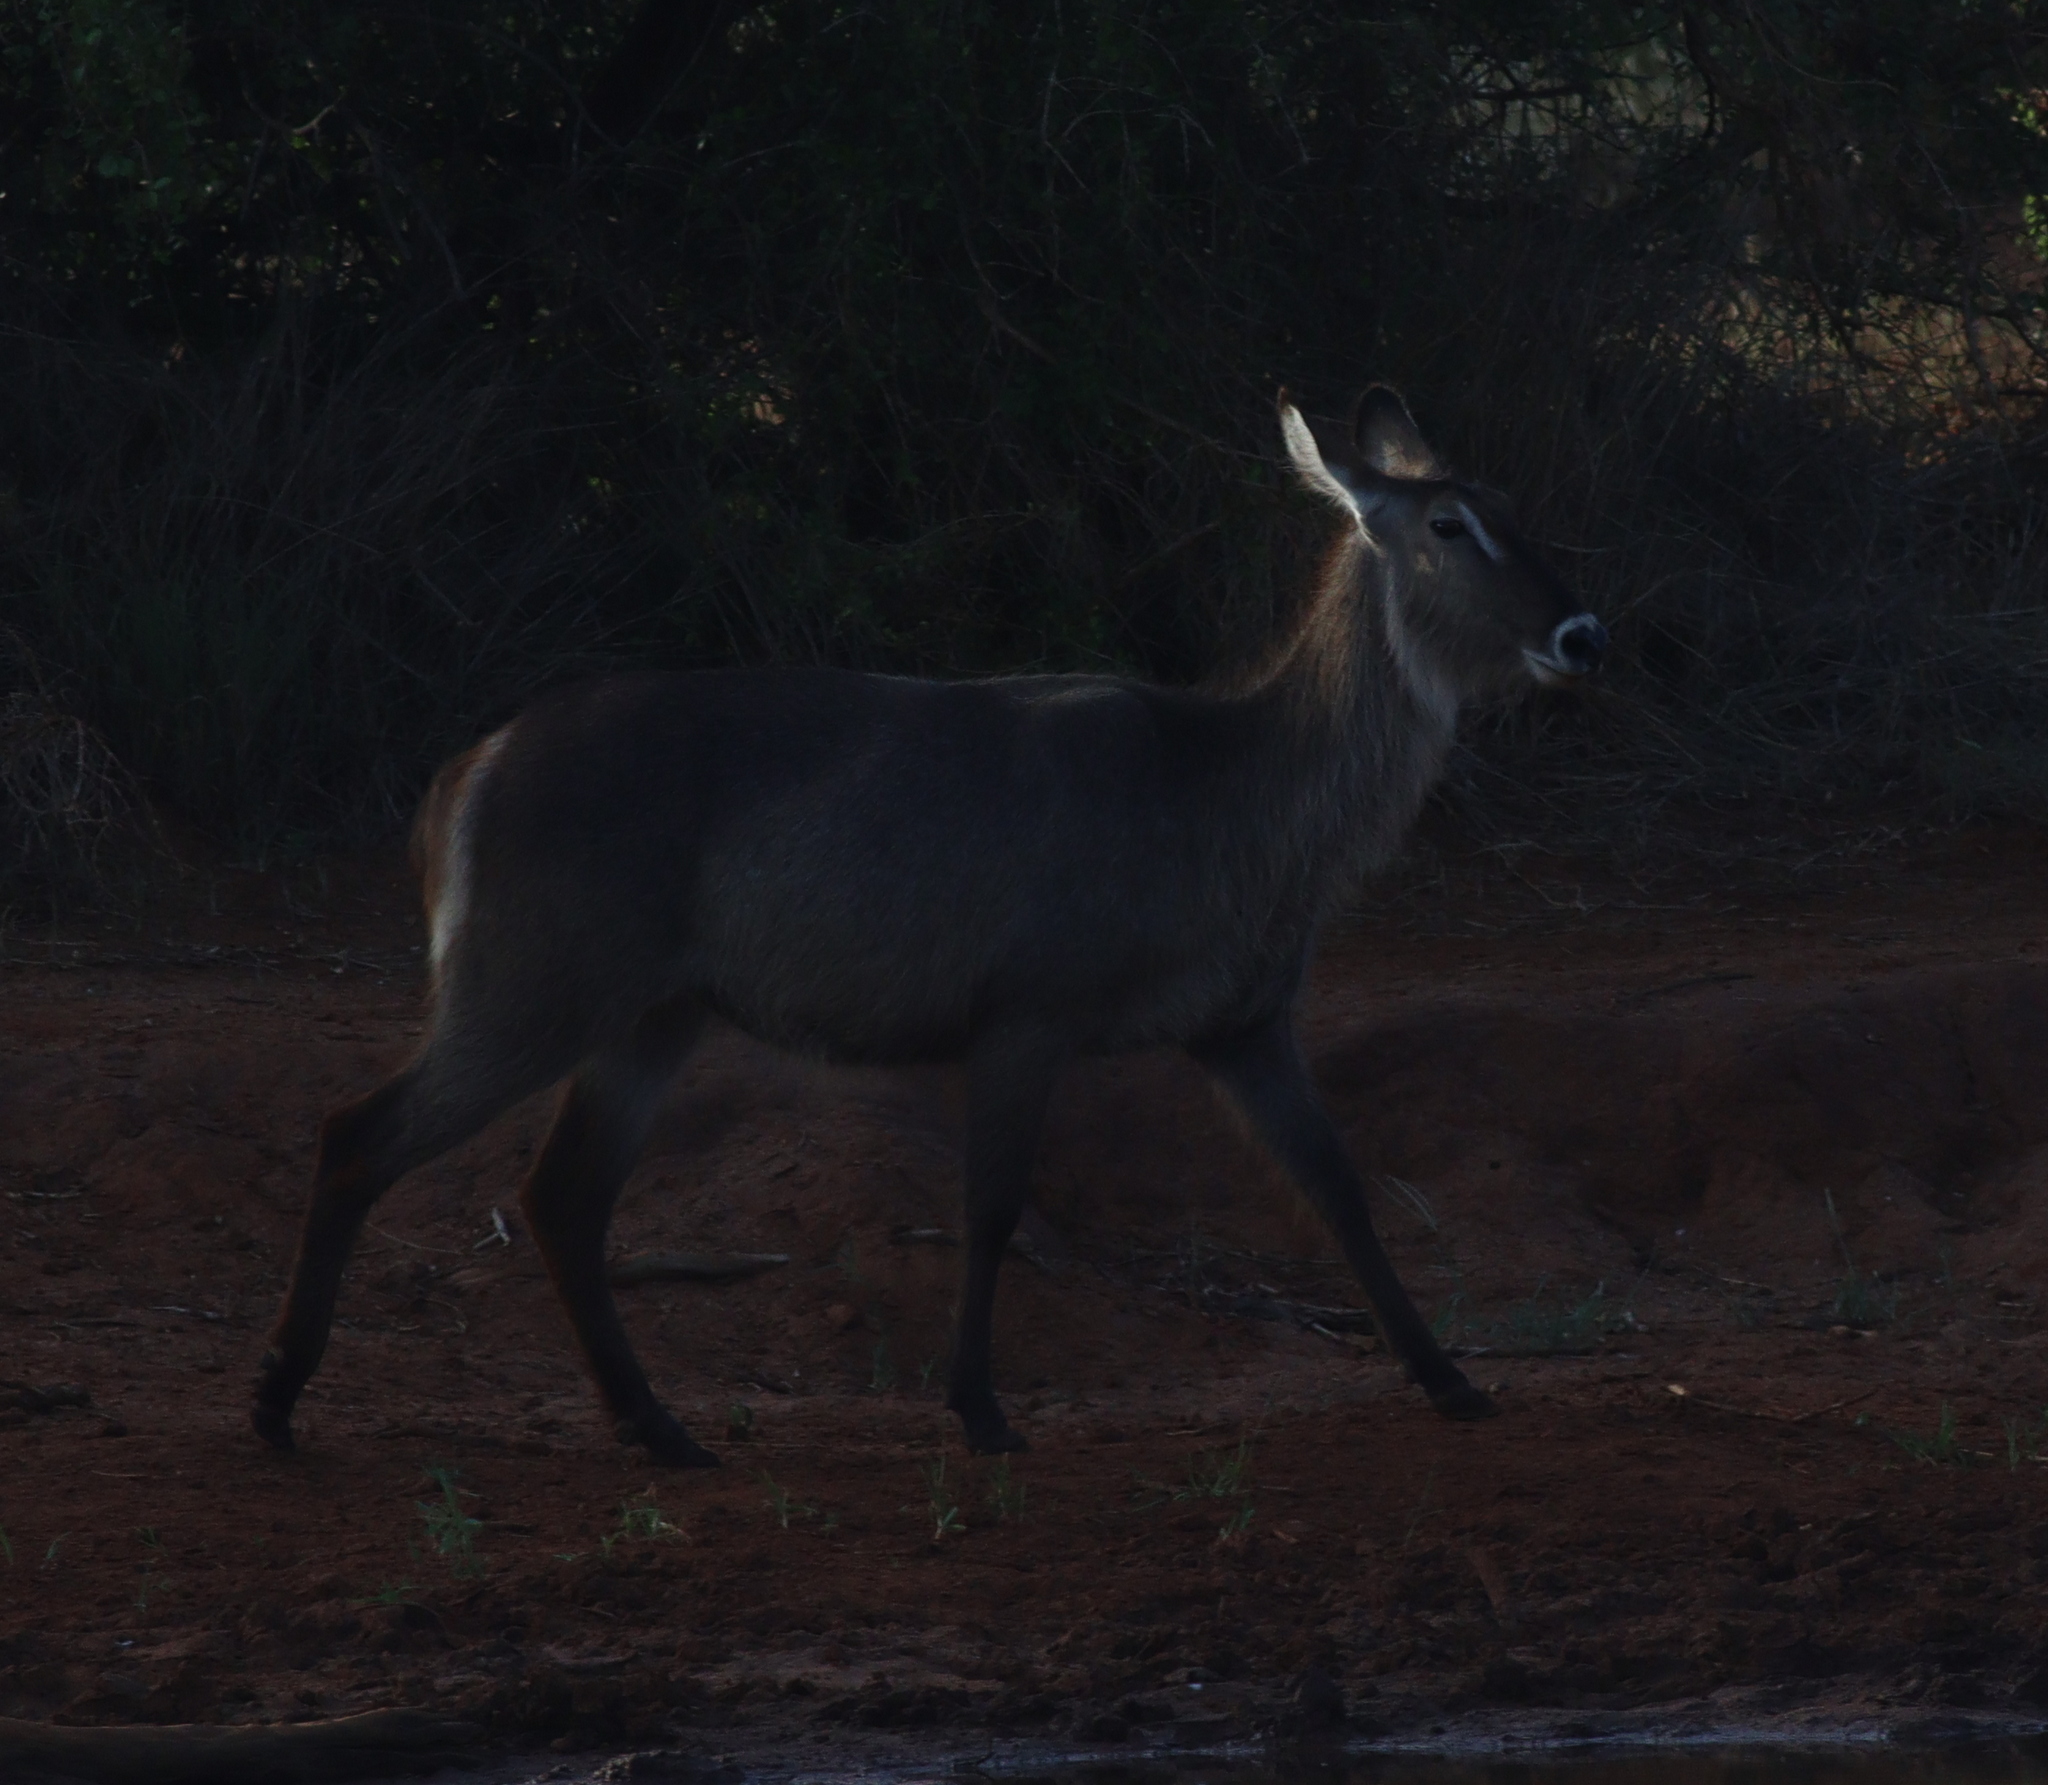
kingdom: Animalia
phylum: Chordata
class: Mammalia
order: Artiodactyla
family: Bovidae
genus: Kobus
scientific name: Kobus ellipsiprymnus
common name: Waterbuck
